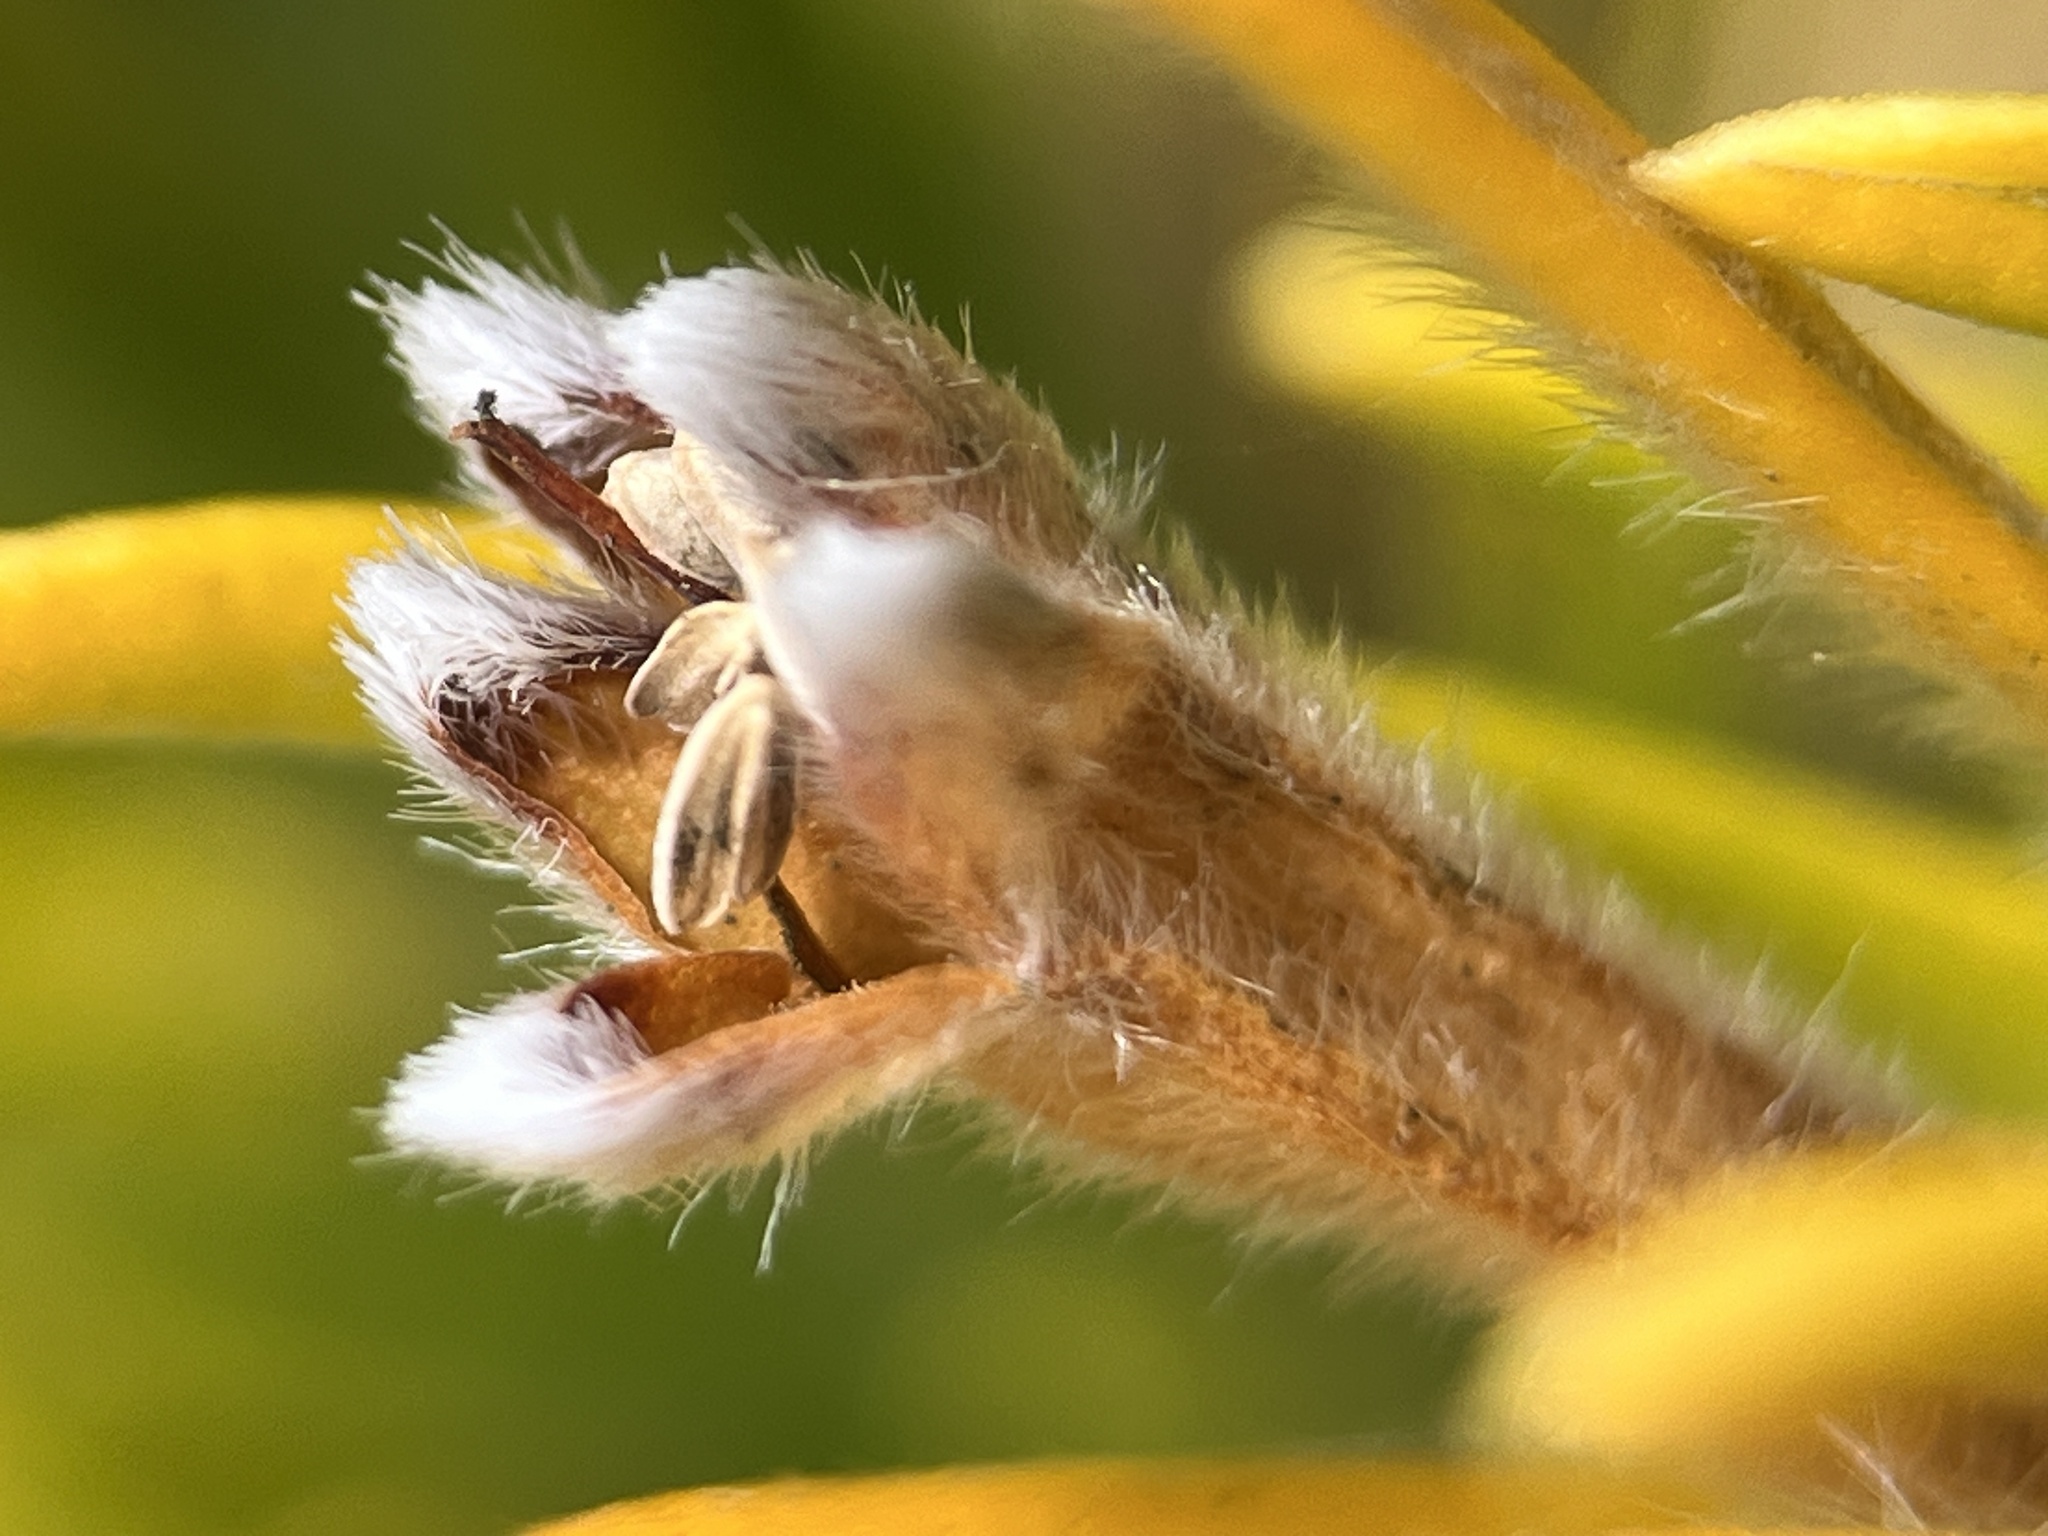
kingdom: Plantae
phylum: Tracheophyta
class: Magnoliopsida
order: Lamiales
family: Stilbaceae
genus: Retzia
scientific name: Retzia capensis
